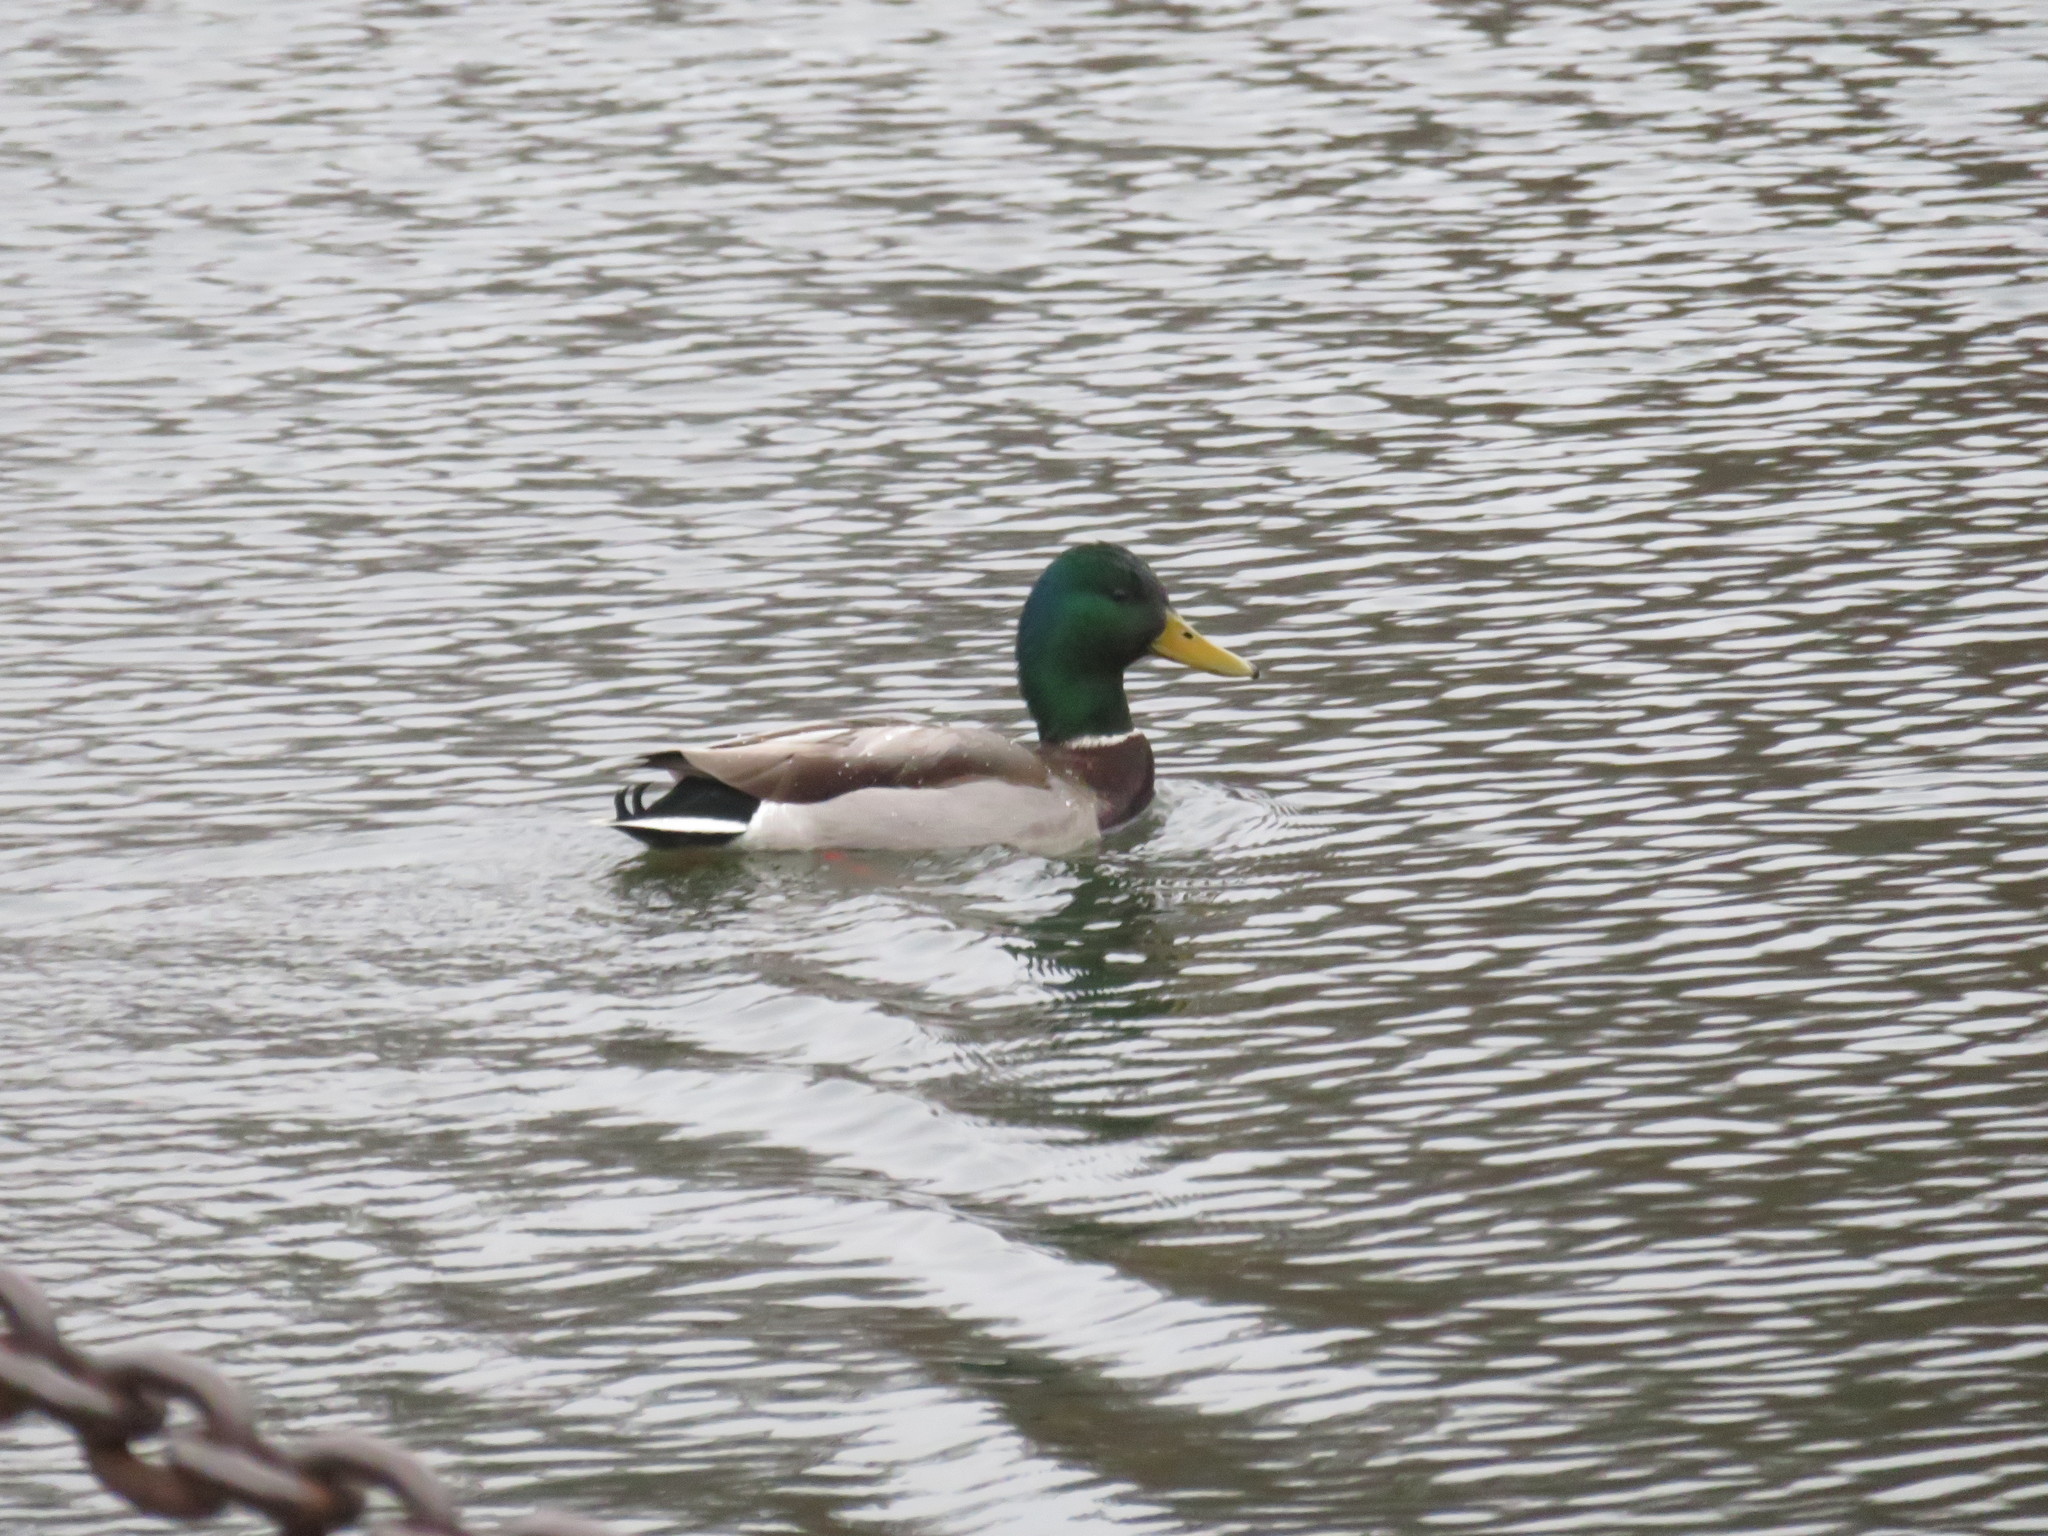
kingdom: Animalia
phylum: Chordata
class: Aves
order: Anseriformes
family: Anatidae
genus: Anas
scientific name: Anas platyrhynchos
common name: Mallard
